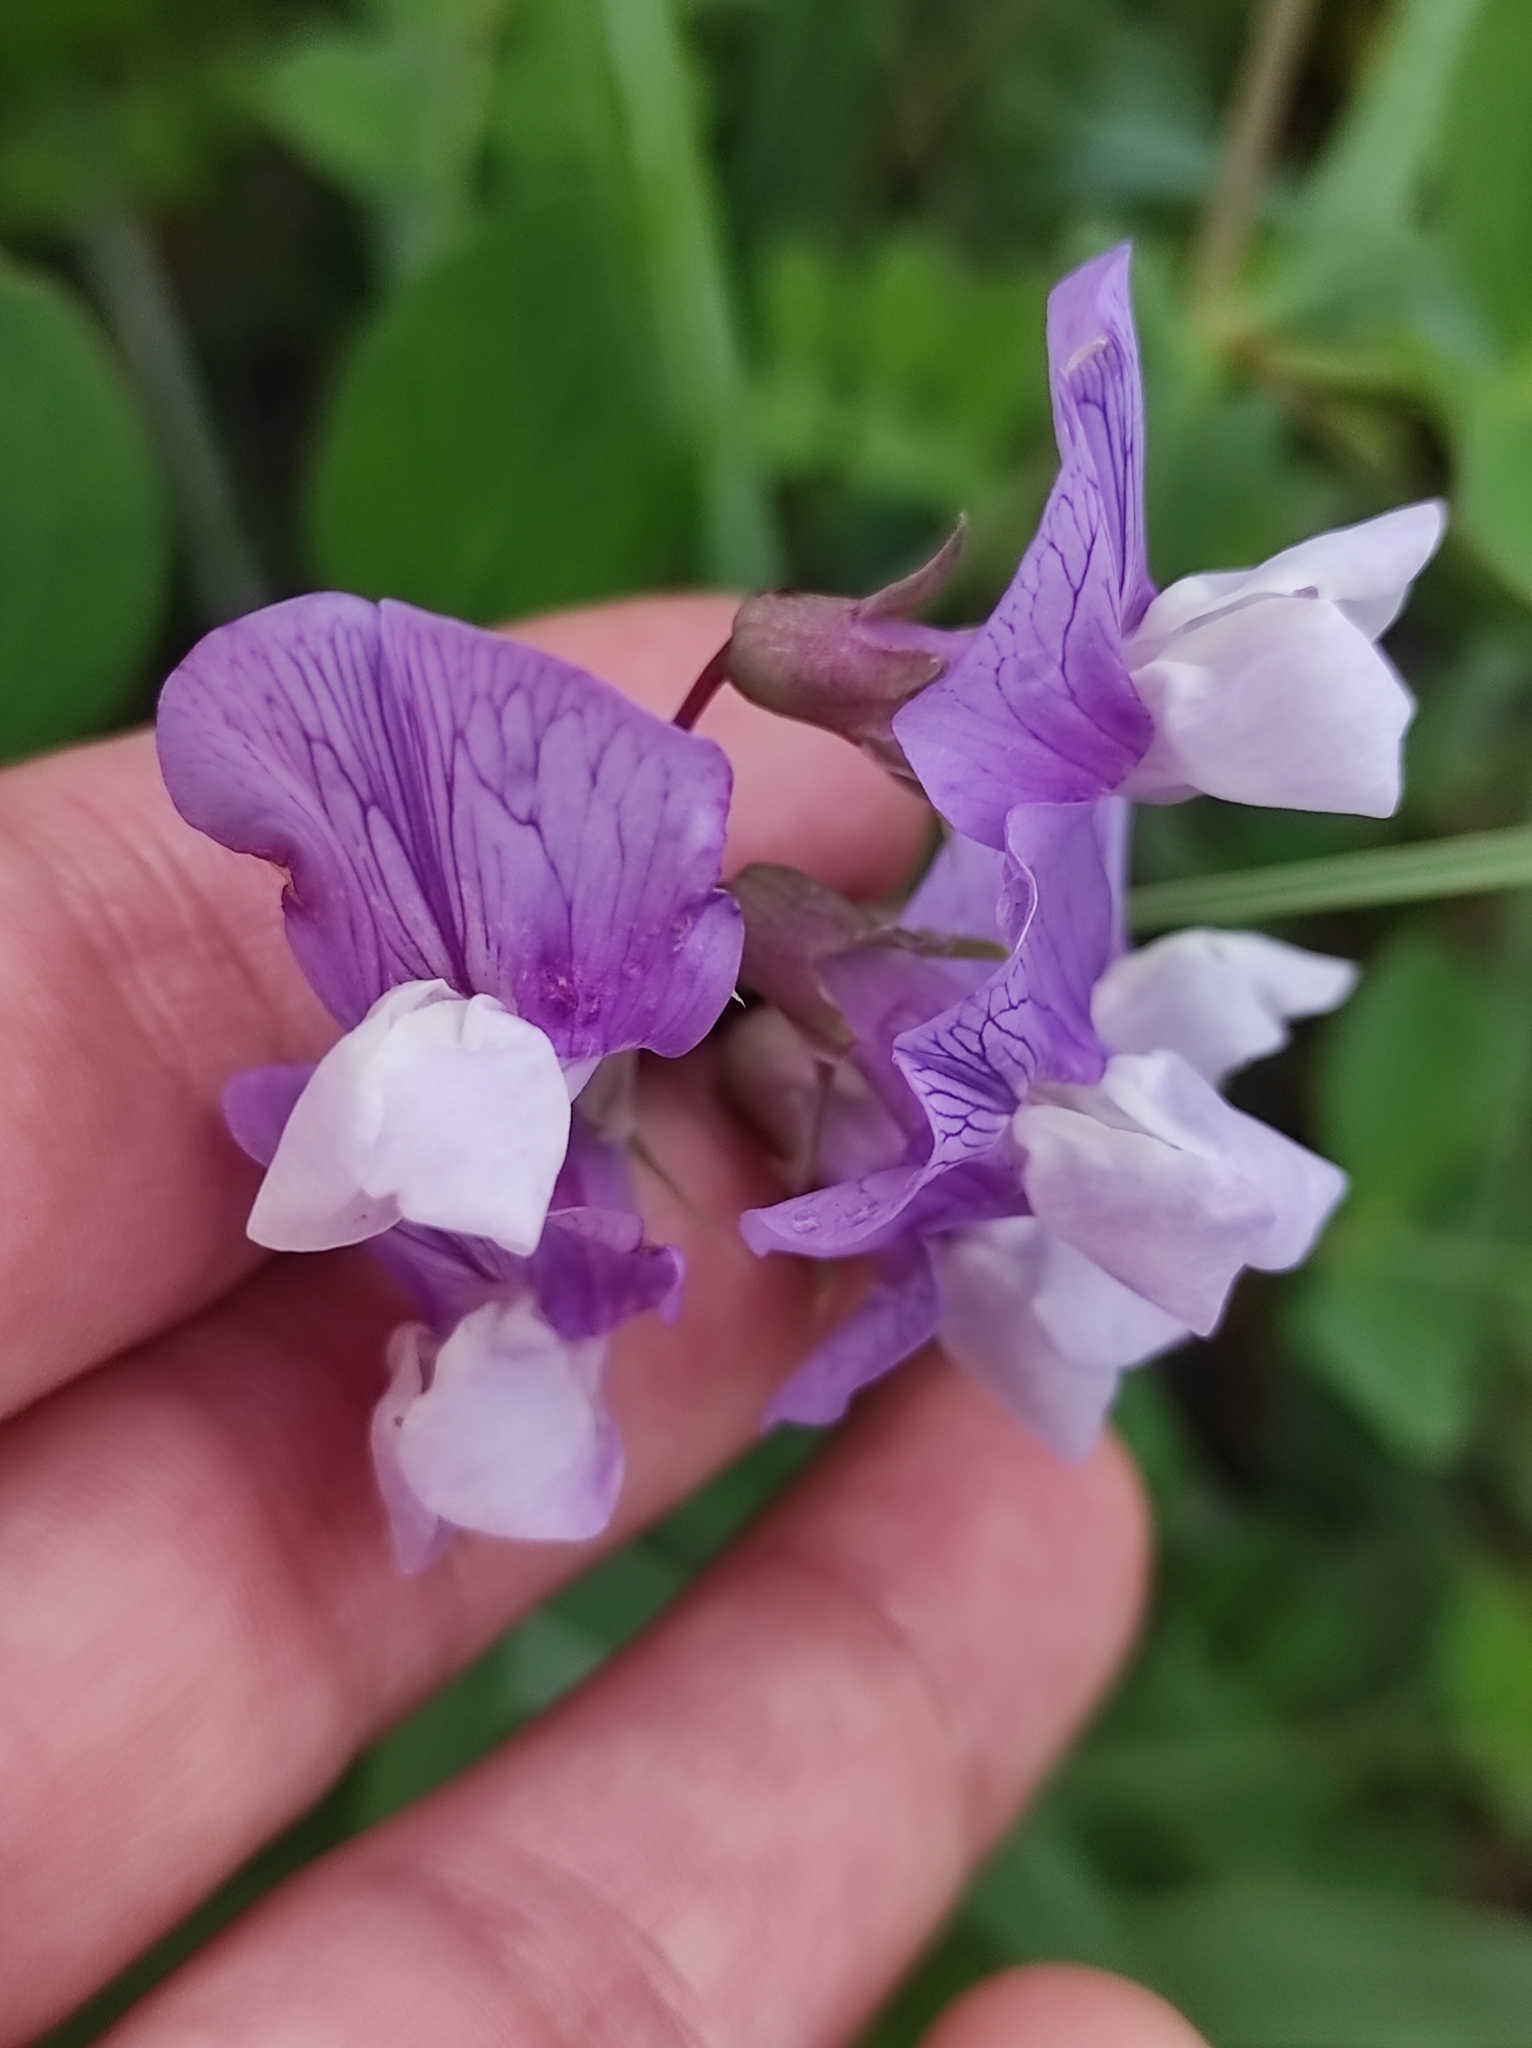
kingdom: Plantae
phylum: Tracheophyta
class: Magnoliopsida
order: Fabales
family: Fabaceae
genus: Lathyrus
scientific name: Lathyrus japonicus
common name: Sea pea
